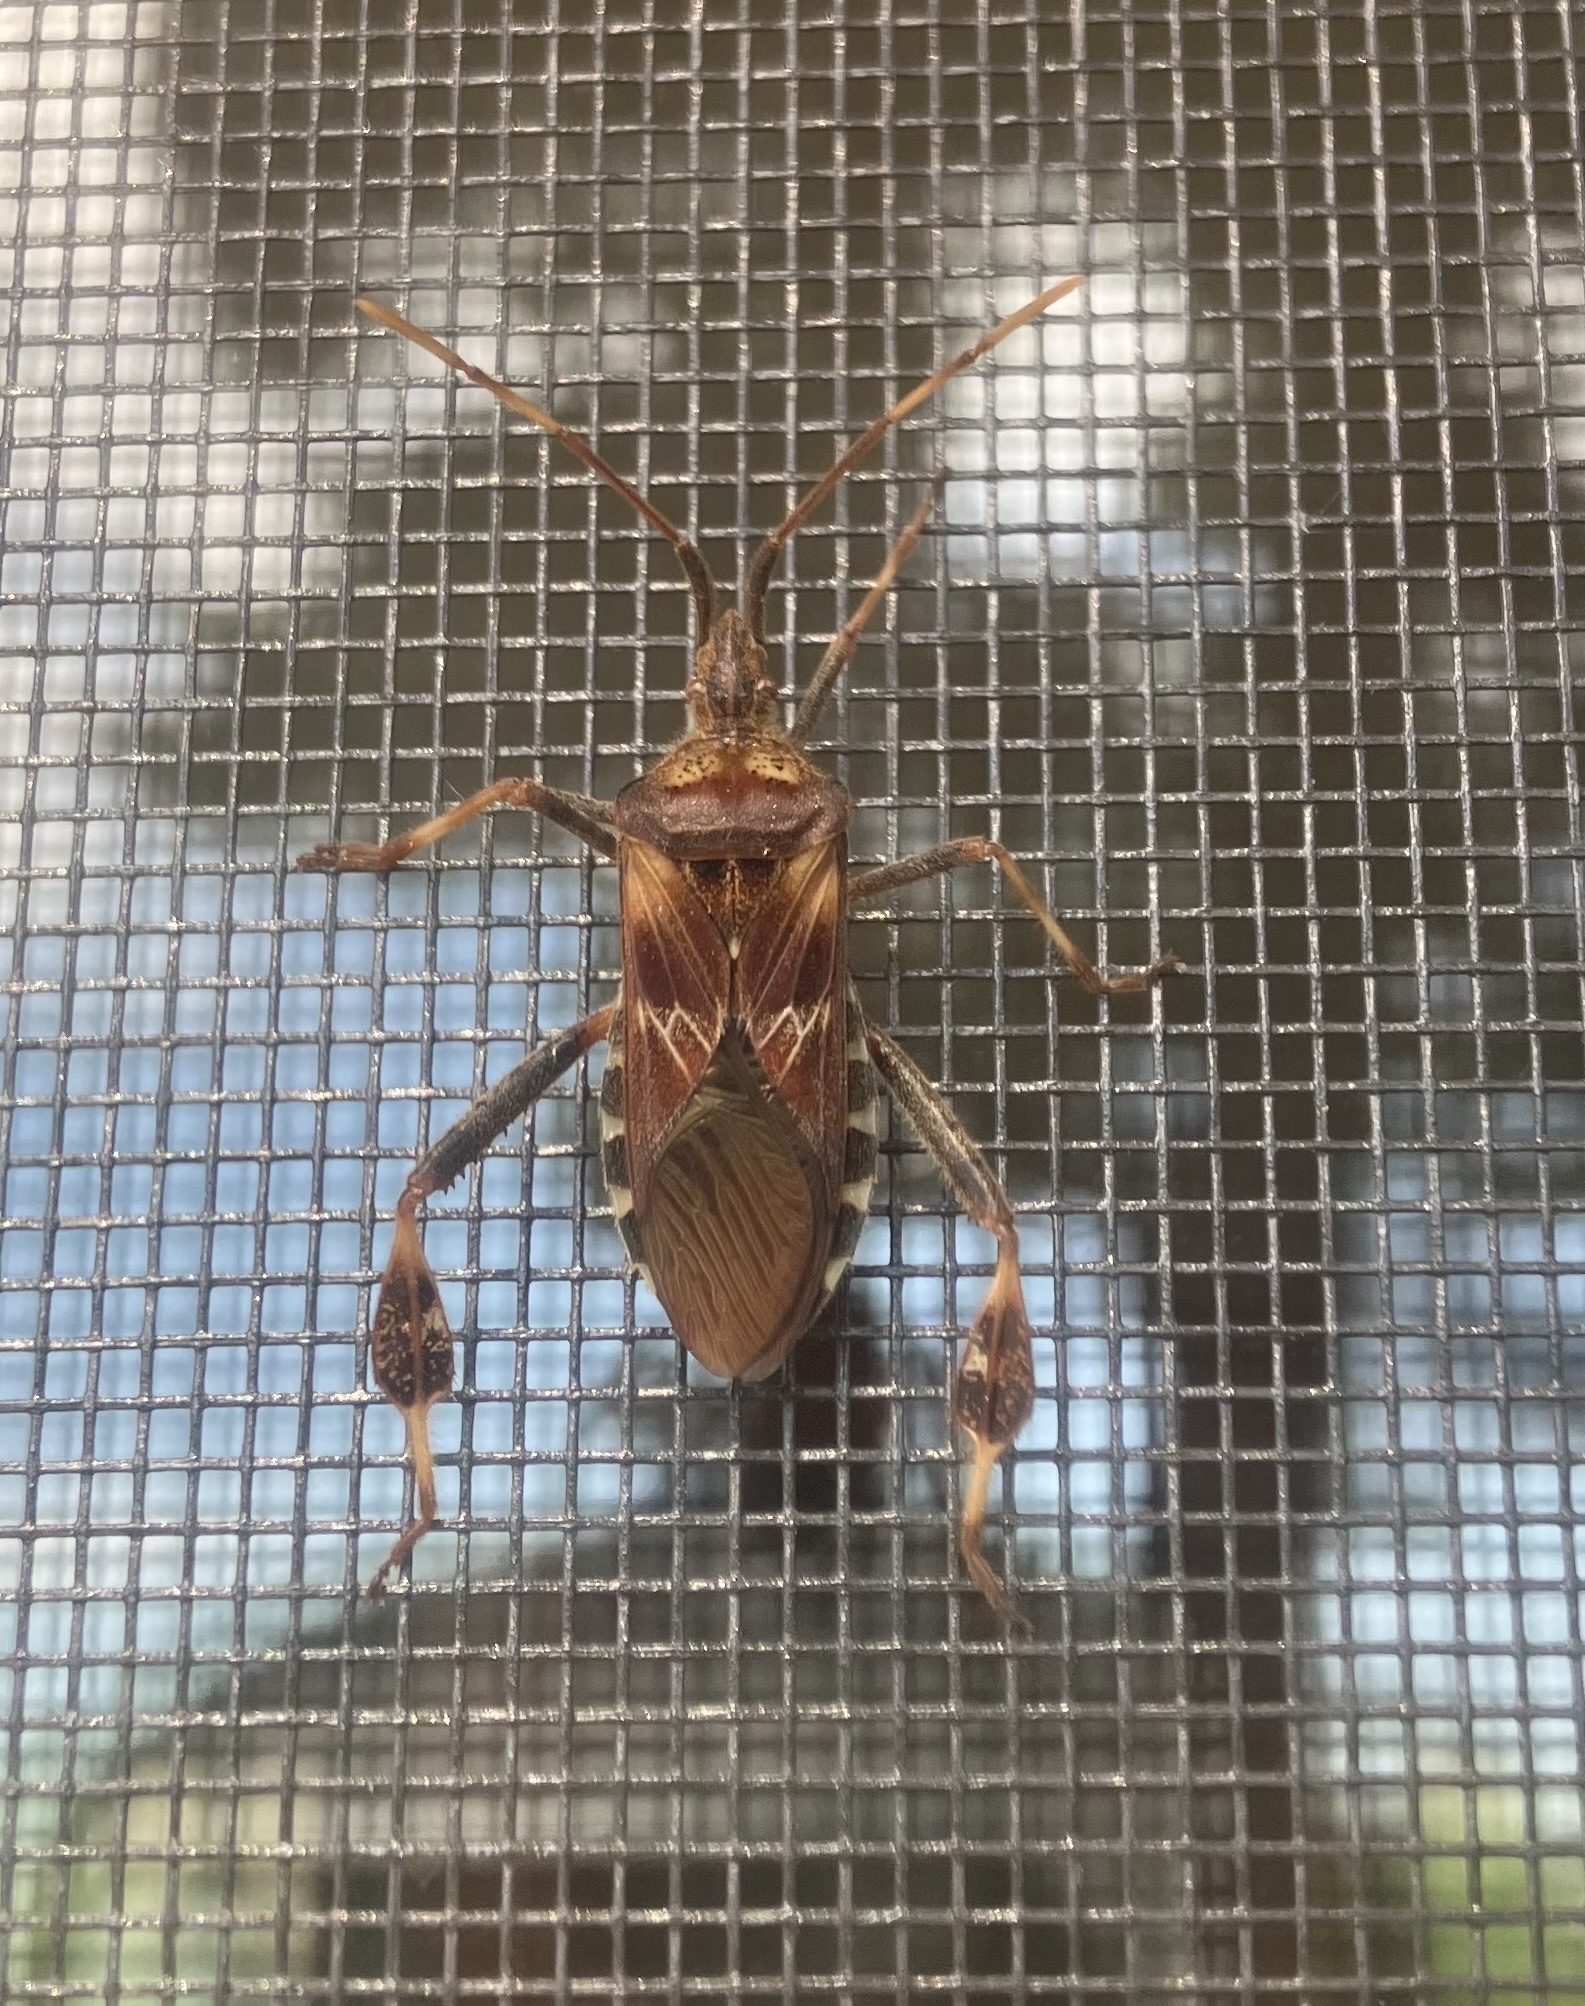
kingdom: Animalia
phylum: Arthropoda
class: Insecta
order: Hemiptera
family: Coreidae
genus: Leptoglossus
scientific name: Leptoglossus occidentalis
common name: Western conifer-seed bug
